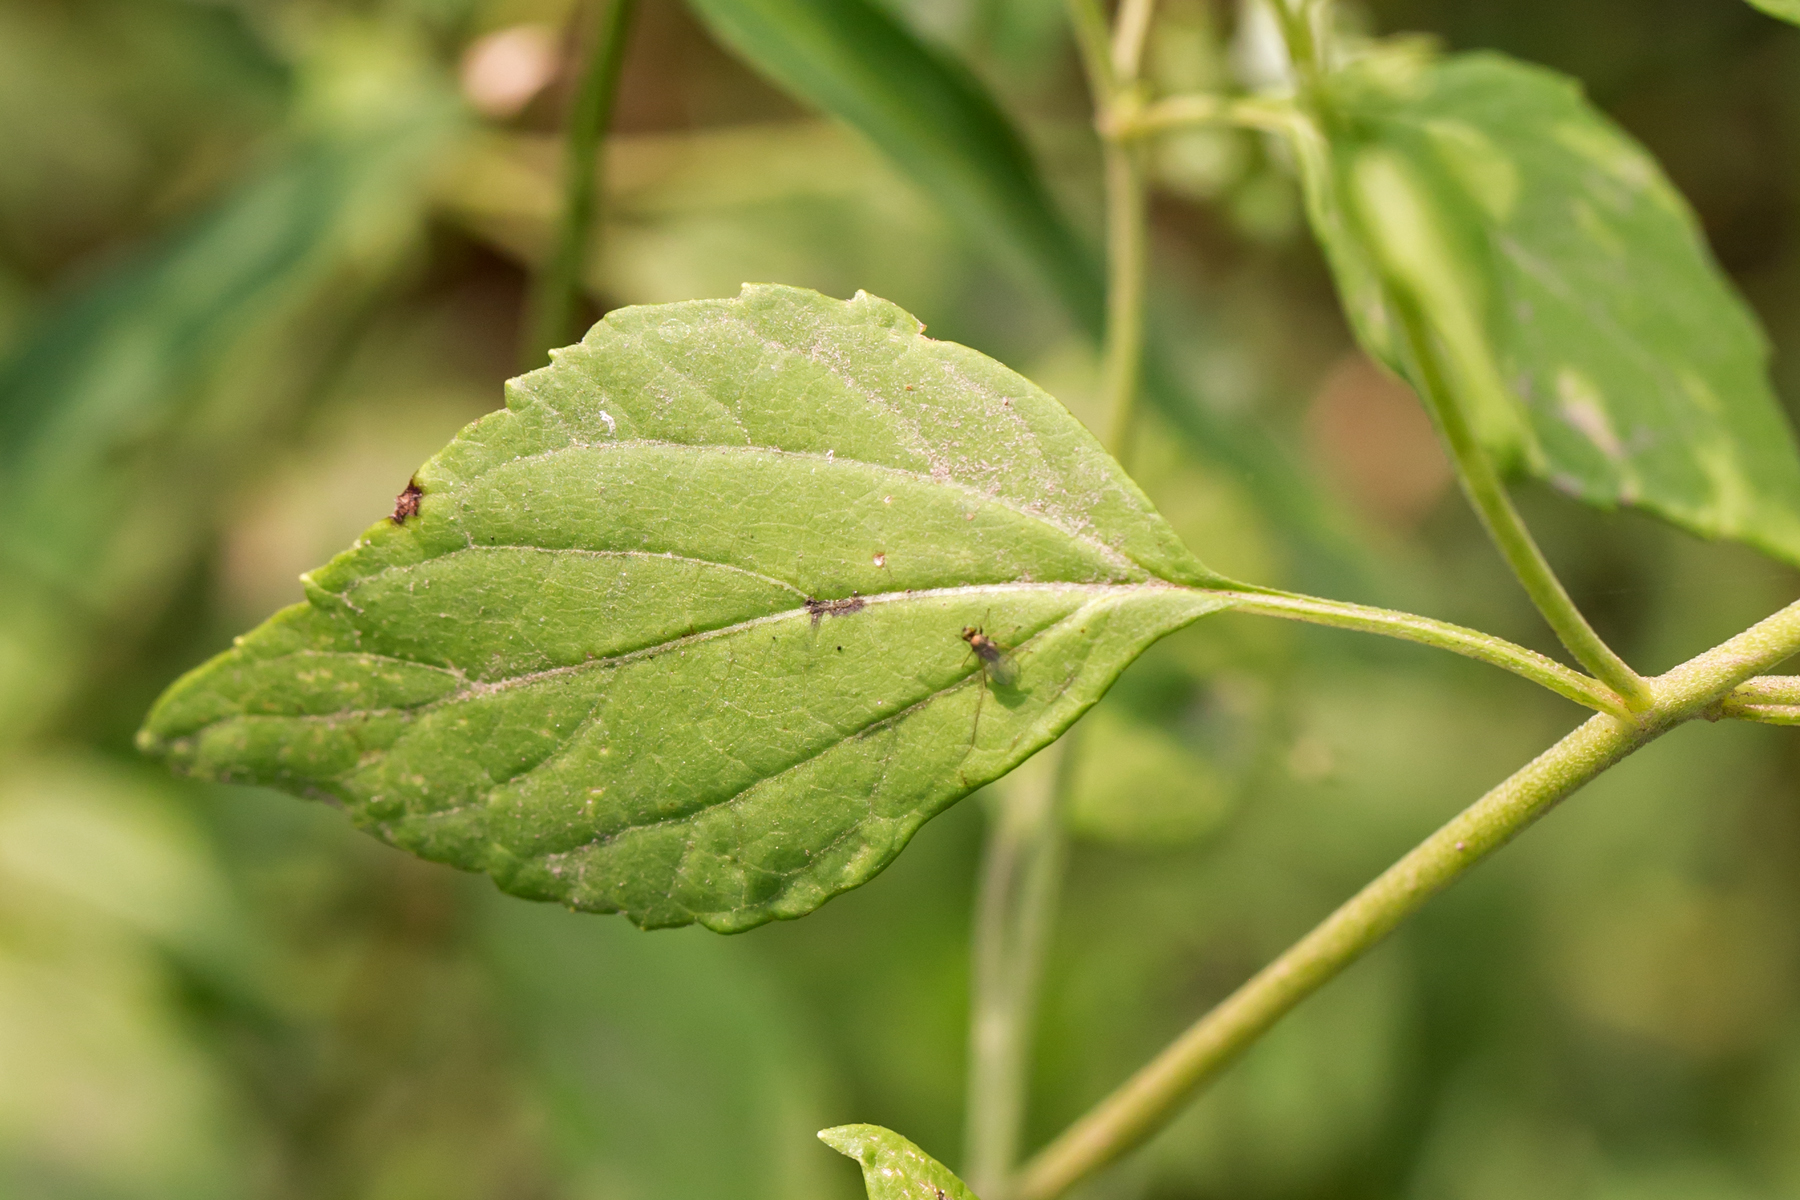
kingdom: Plantae
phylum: Tracheophyta
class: Magnoliopsida
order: Asterales
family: Asteraceae
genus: Ageratina
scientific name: Ageratina altissima
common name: White snakeroot
